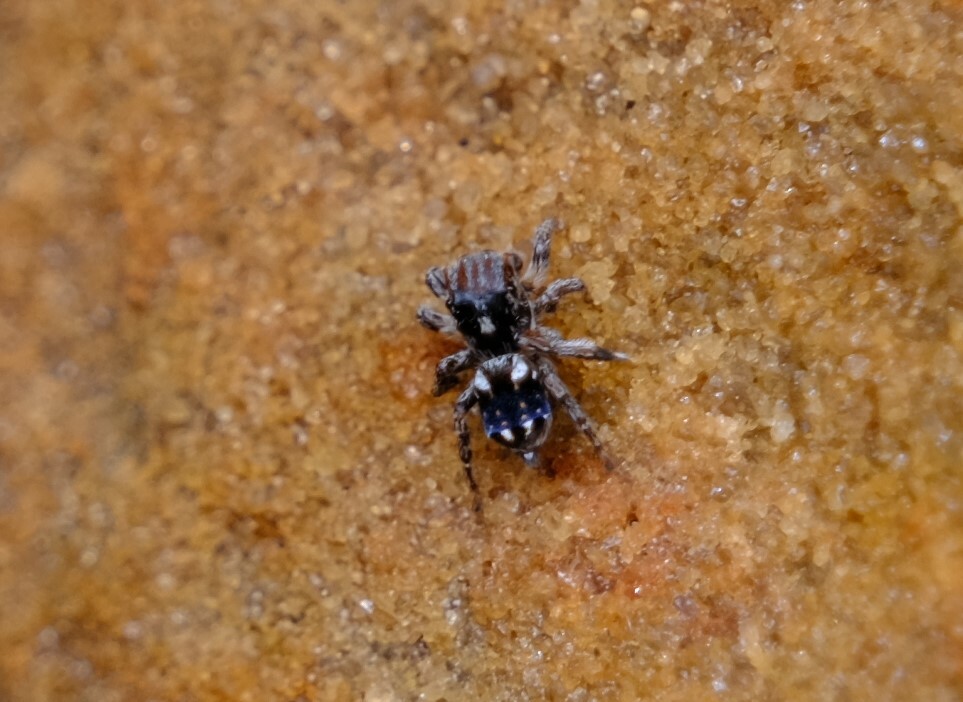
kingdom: Animalia
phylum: Arthropoda
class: Arachnida
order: Araneae
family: Salticidae
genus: Maratus
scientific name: Maratus constellatus
